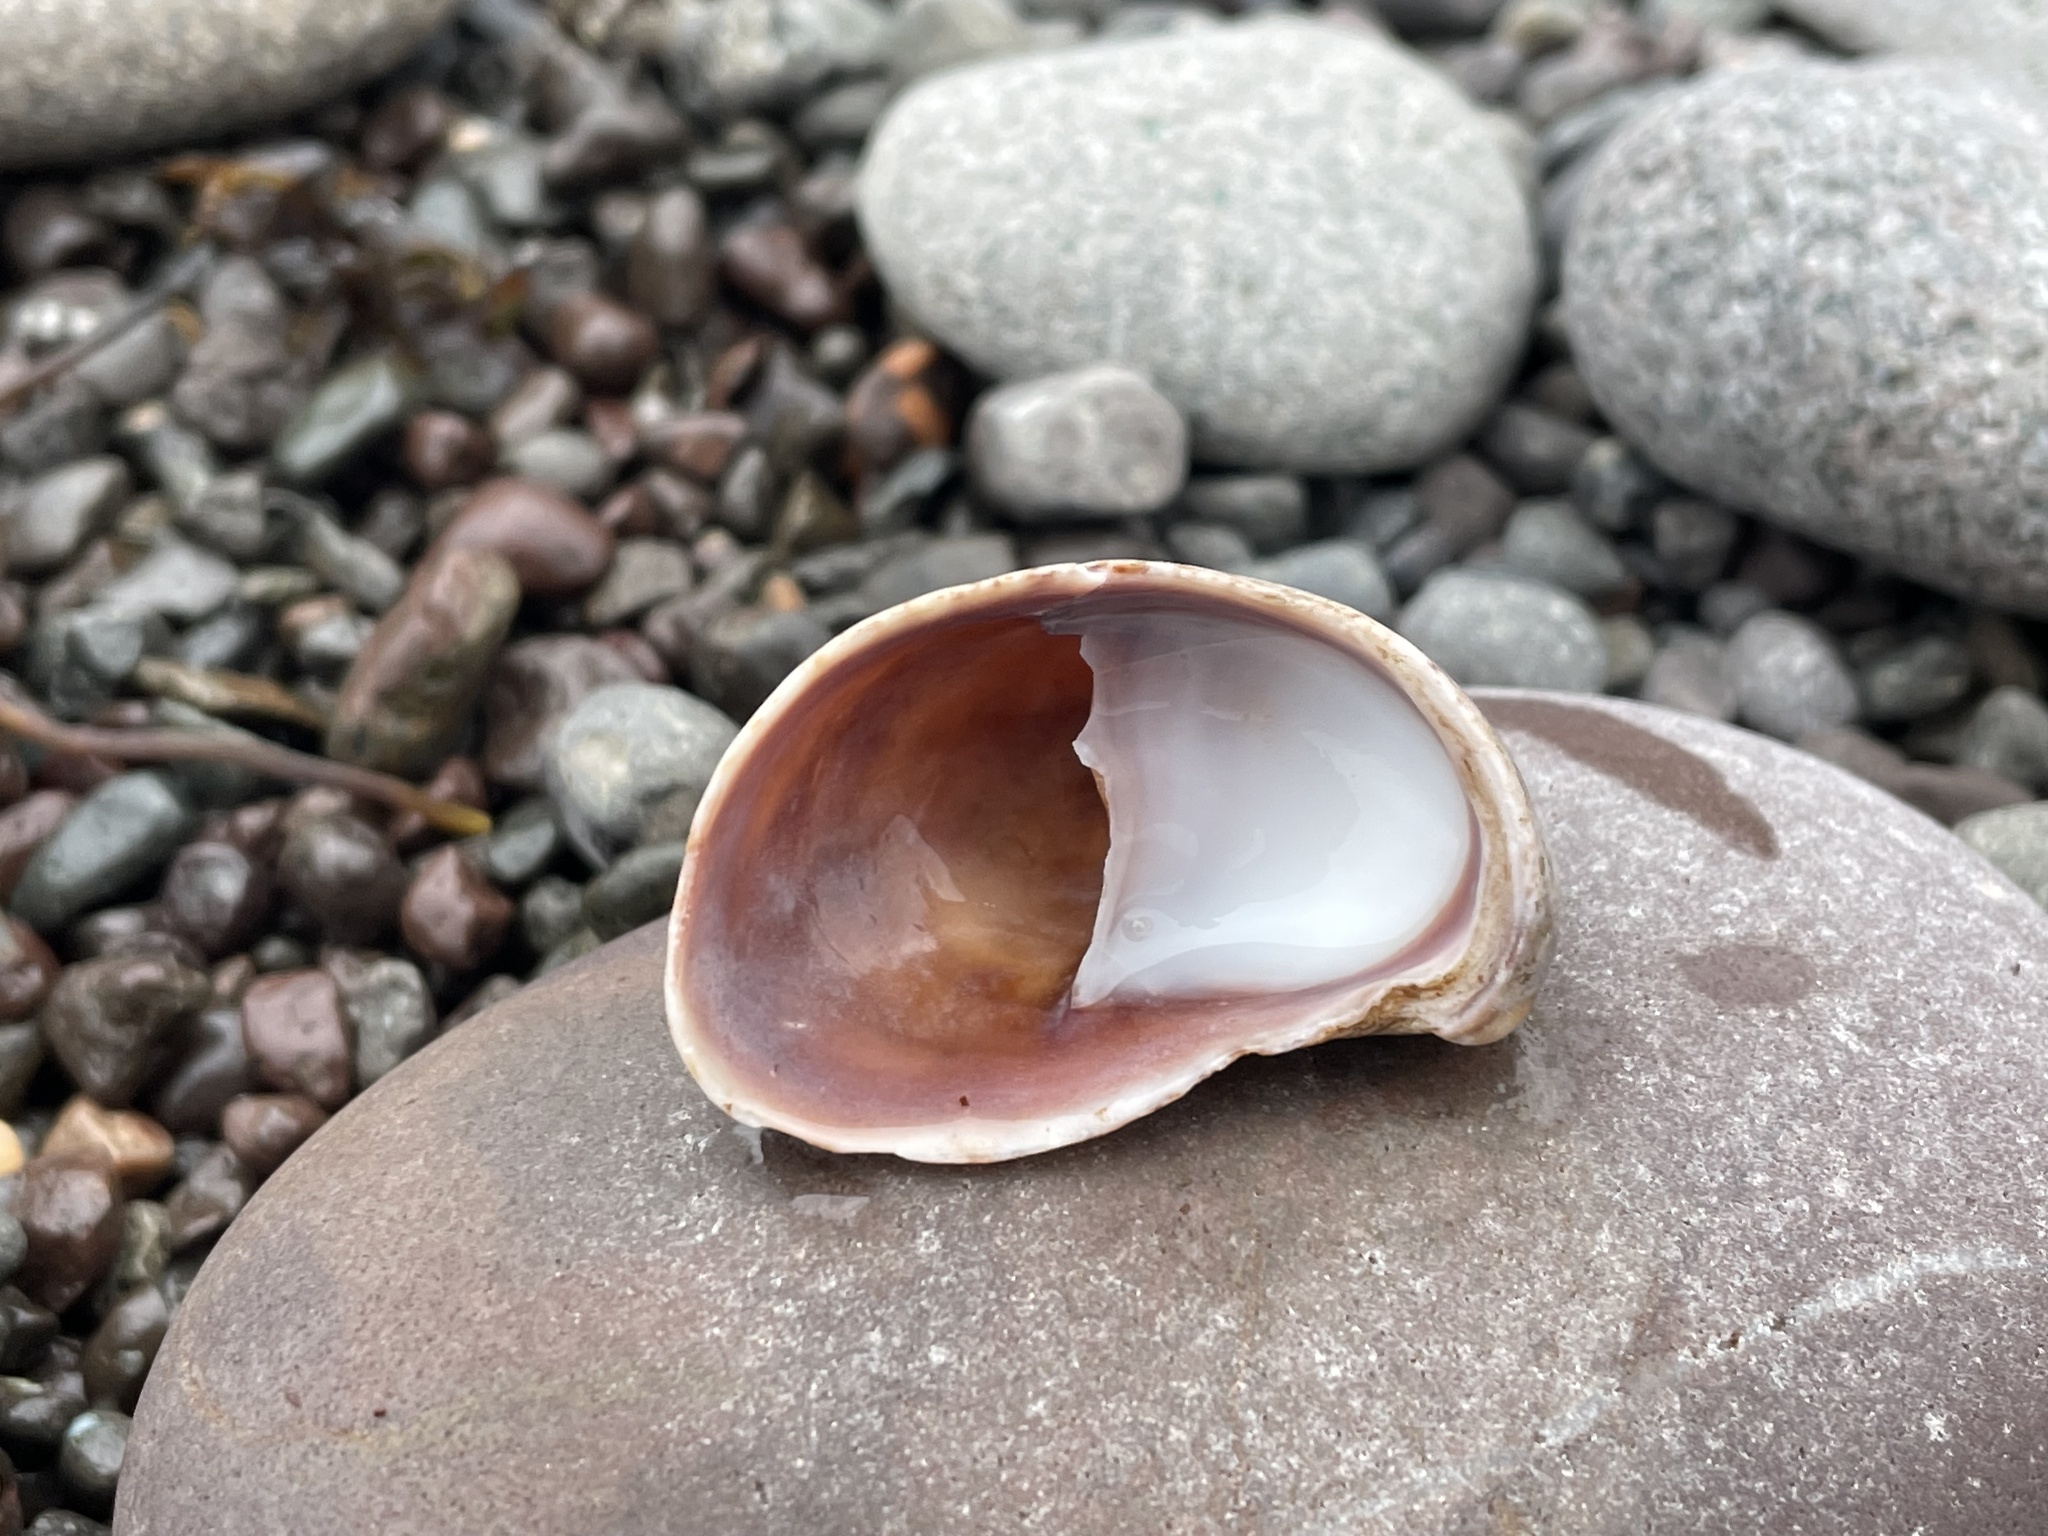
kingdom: Animalia
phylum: Mollusca
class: Gastropoda
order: Littorinimorpha
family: Calyptraeidae
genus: Crepidula
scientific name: Crepidula fornicata
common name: Slipper limpet
